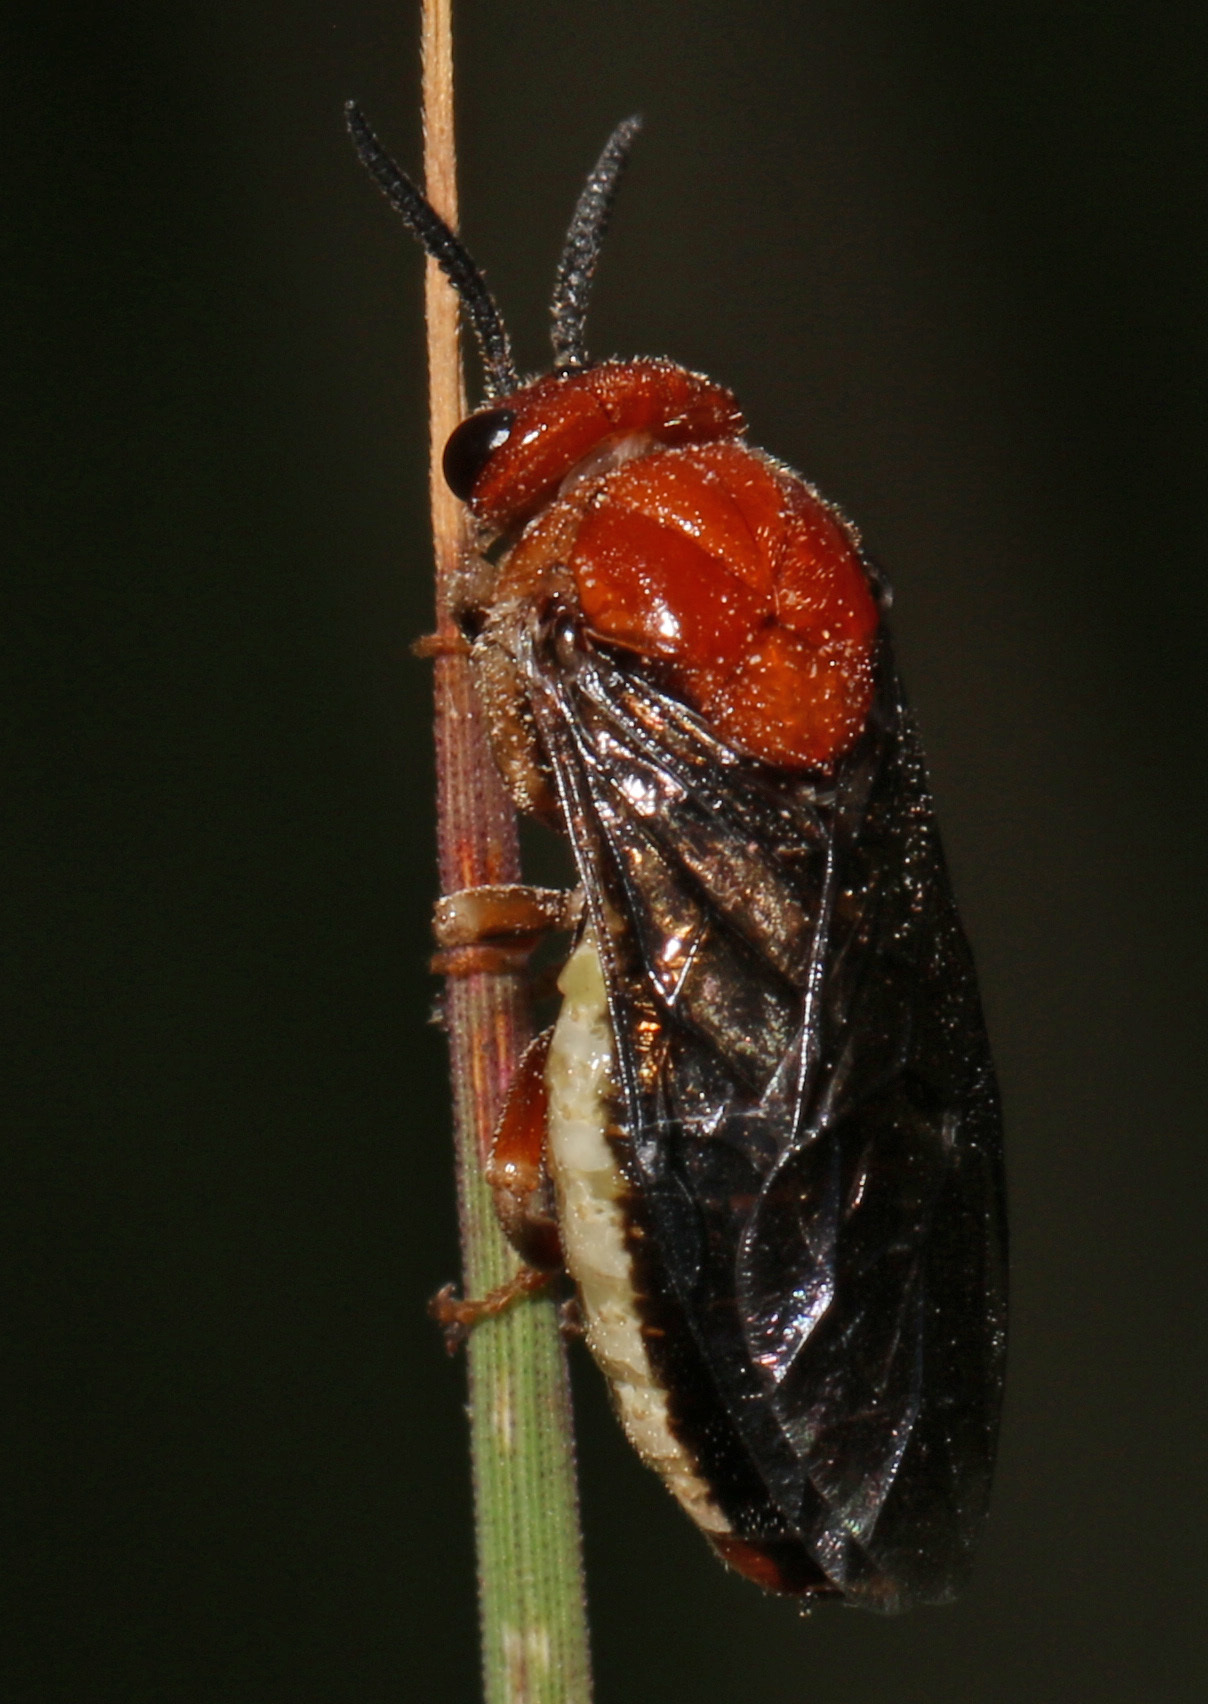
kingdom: Animalia
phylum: Arthropoda
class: Insecta
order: Hymenoptera
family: Diprionidae
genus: Neodiprion
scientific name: Neodiprion lecontei
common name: Redheaded pine sawfly
